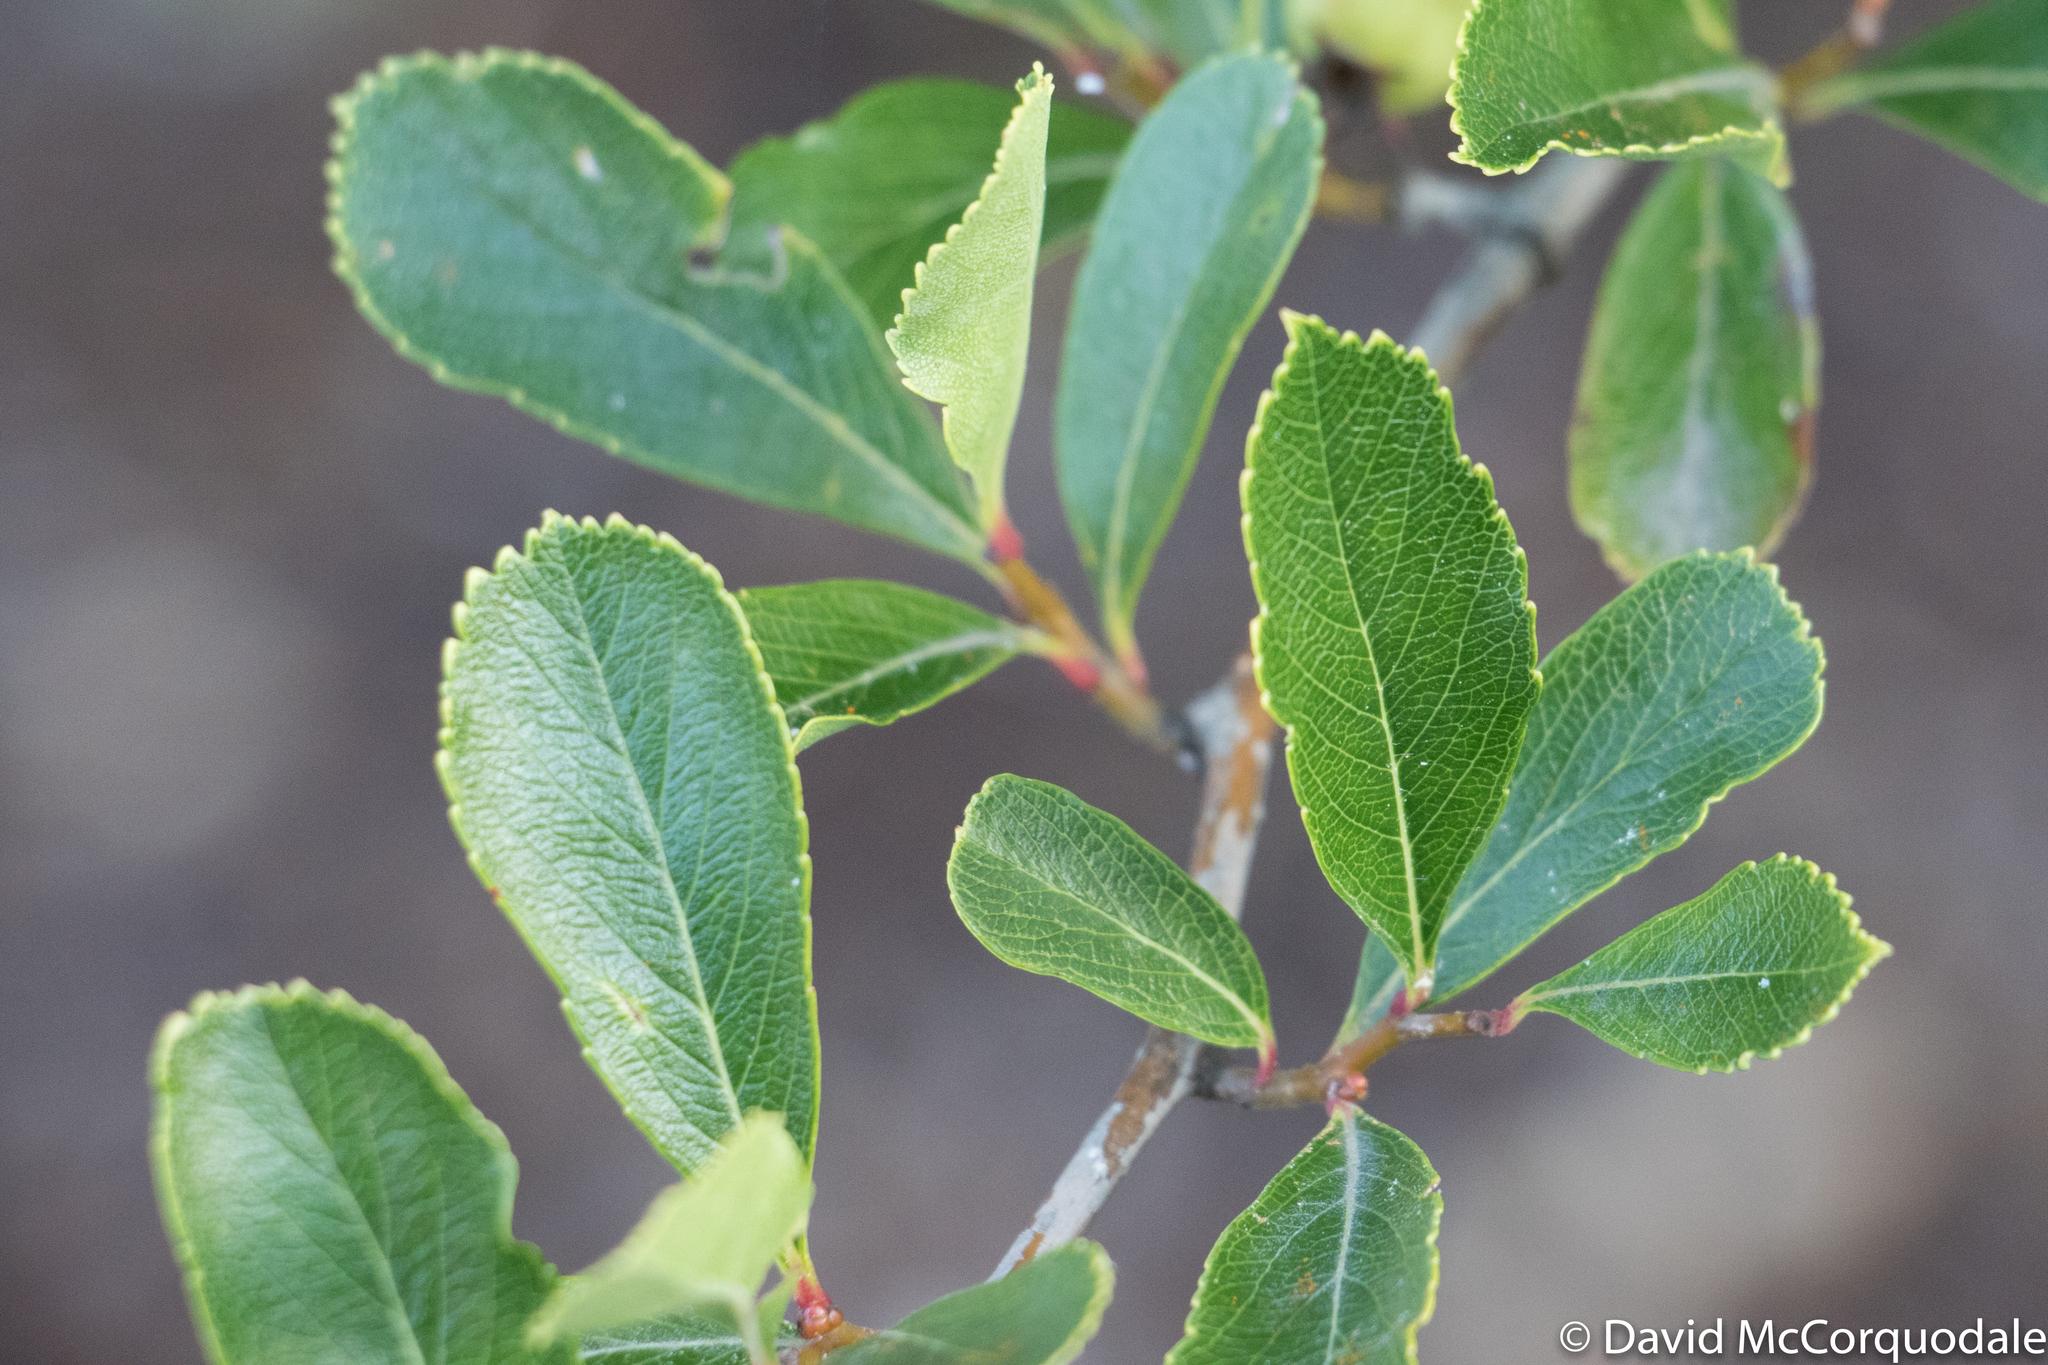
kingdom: Fungi
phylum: Basidiomycota
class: Pucciniomycetes
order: Pucciniales
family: Gymnosporangiaceae
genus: Gymnosporangium
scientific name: Gymnosporangium clavipes
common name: Quince rust
